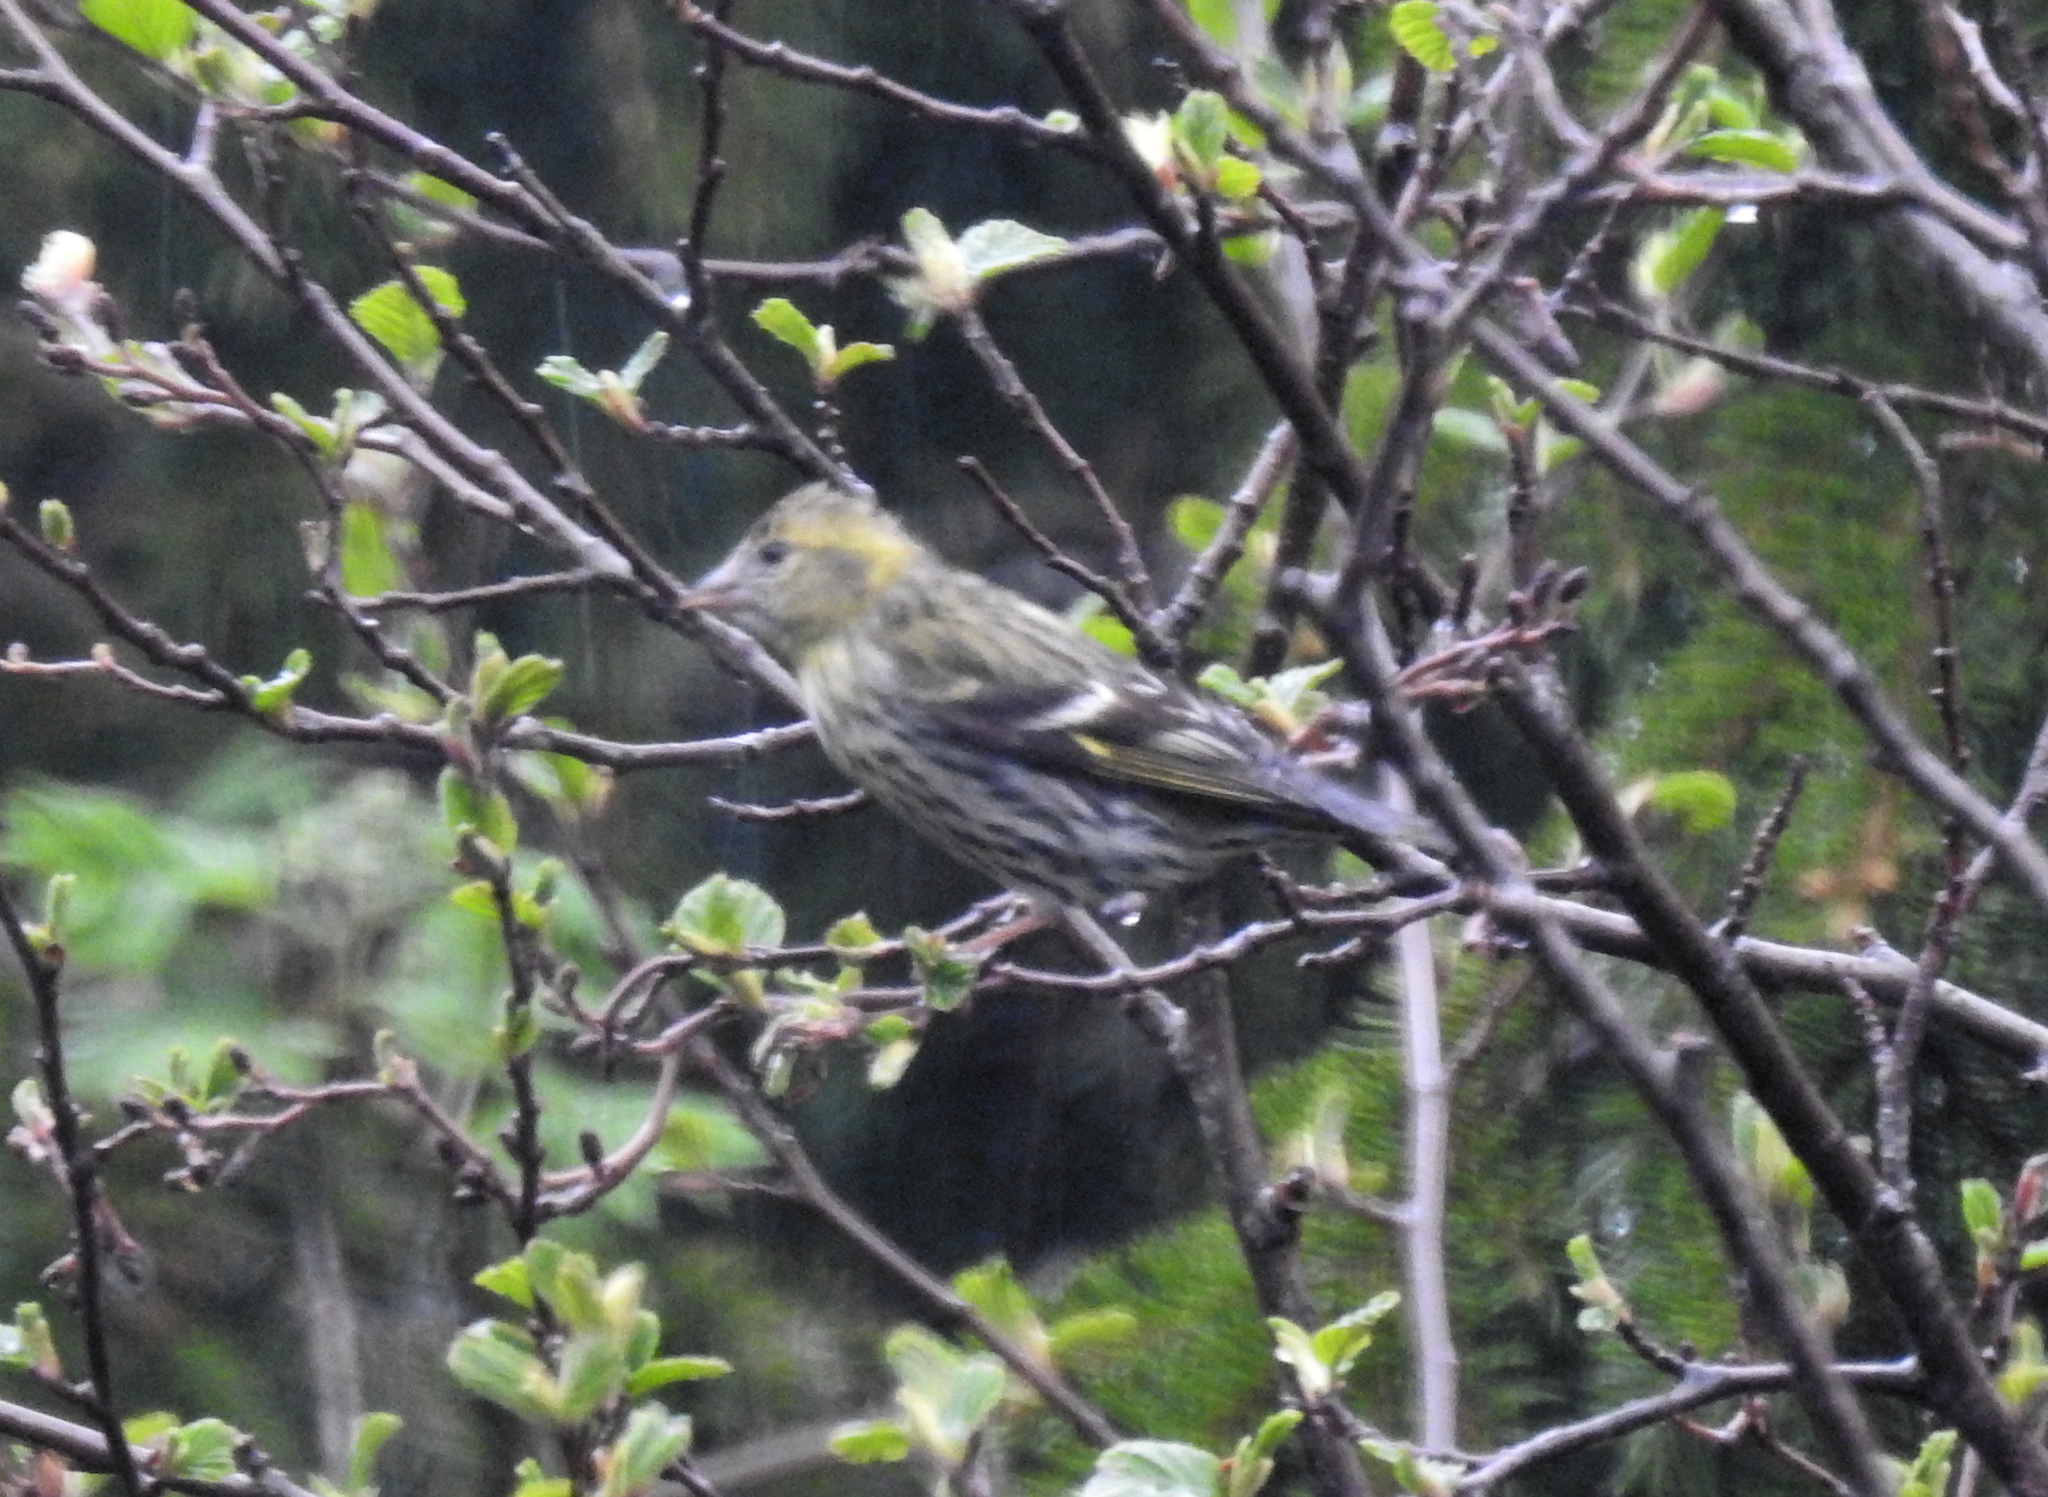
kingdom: Animalia
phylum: Chordata
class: Aves
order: Passeriformes
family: Fringillidae
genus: Spinus
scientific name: Spinus spinus
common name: Eurasian siskin
